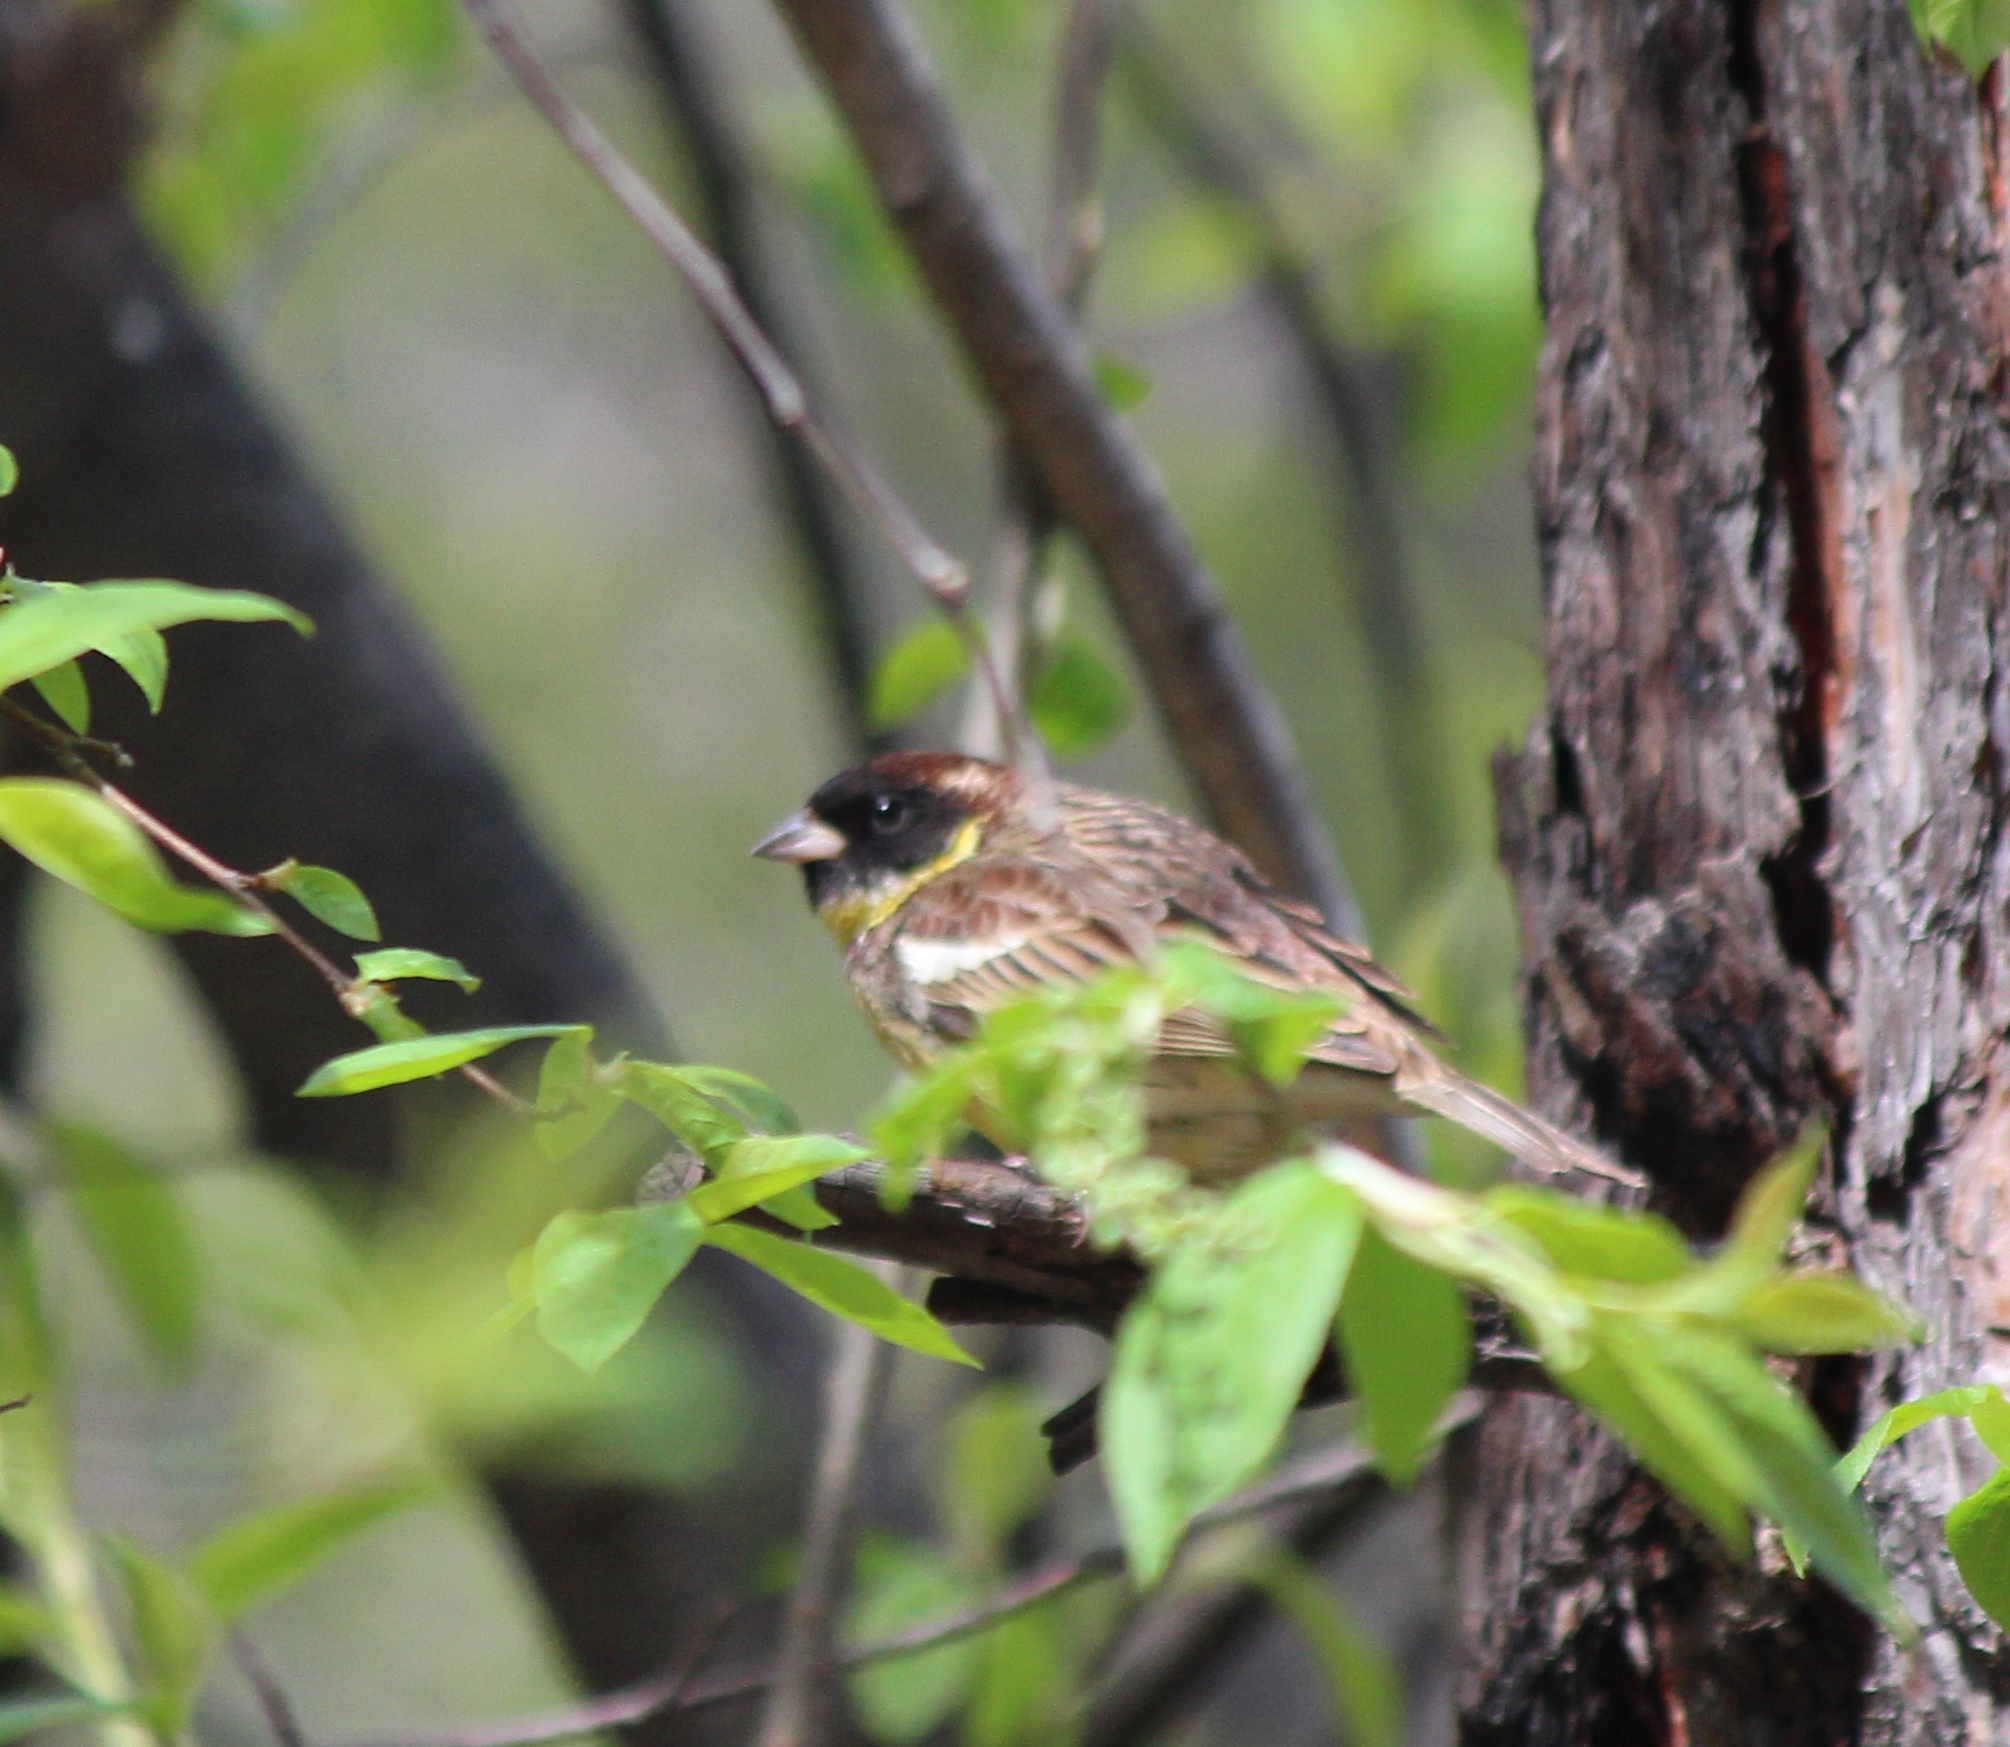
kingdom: Animalia
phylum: Chordata
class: Aves
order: Passeriformes
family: Emberizidae
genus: Emberiza
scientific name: Emberiza aureola
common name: Yellow-breasted bunting
